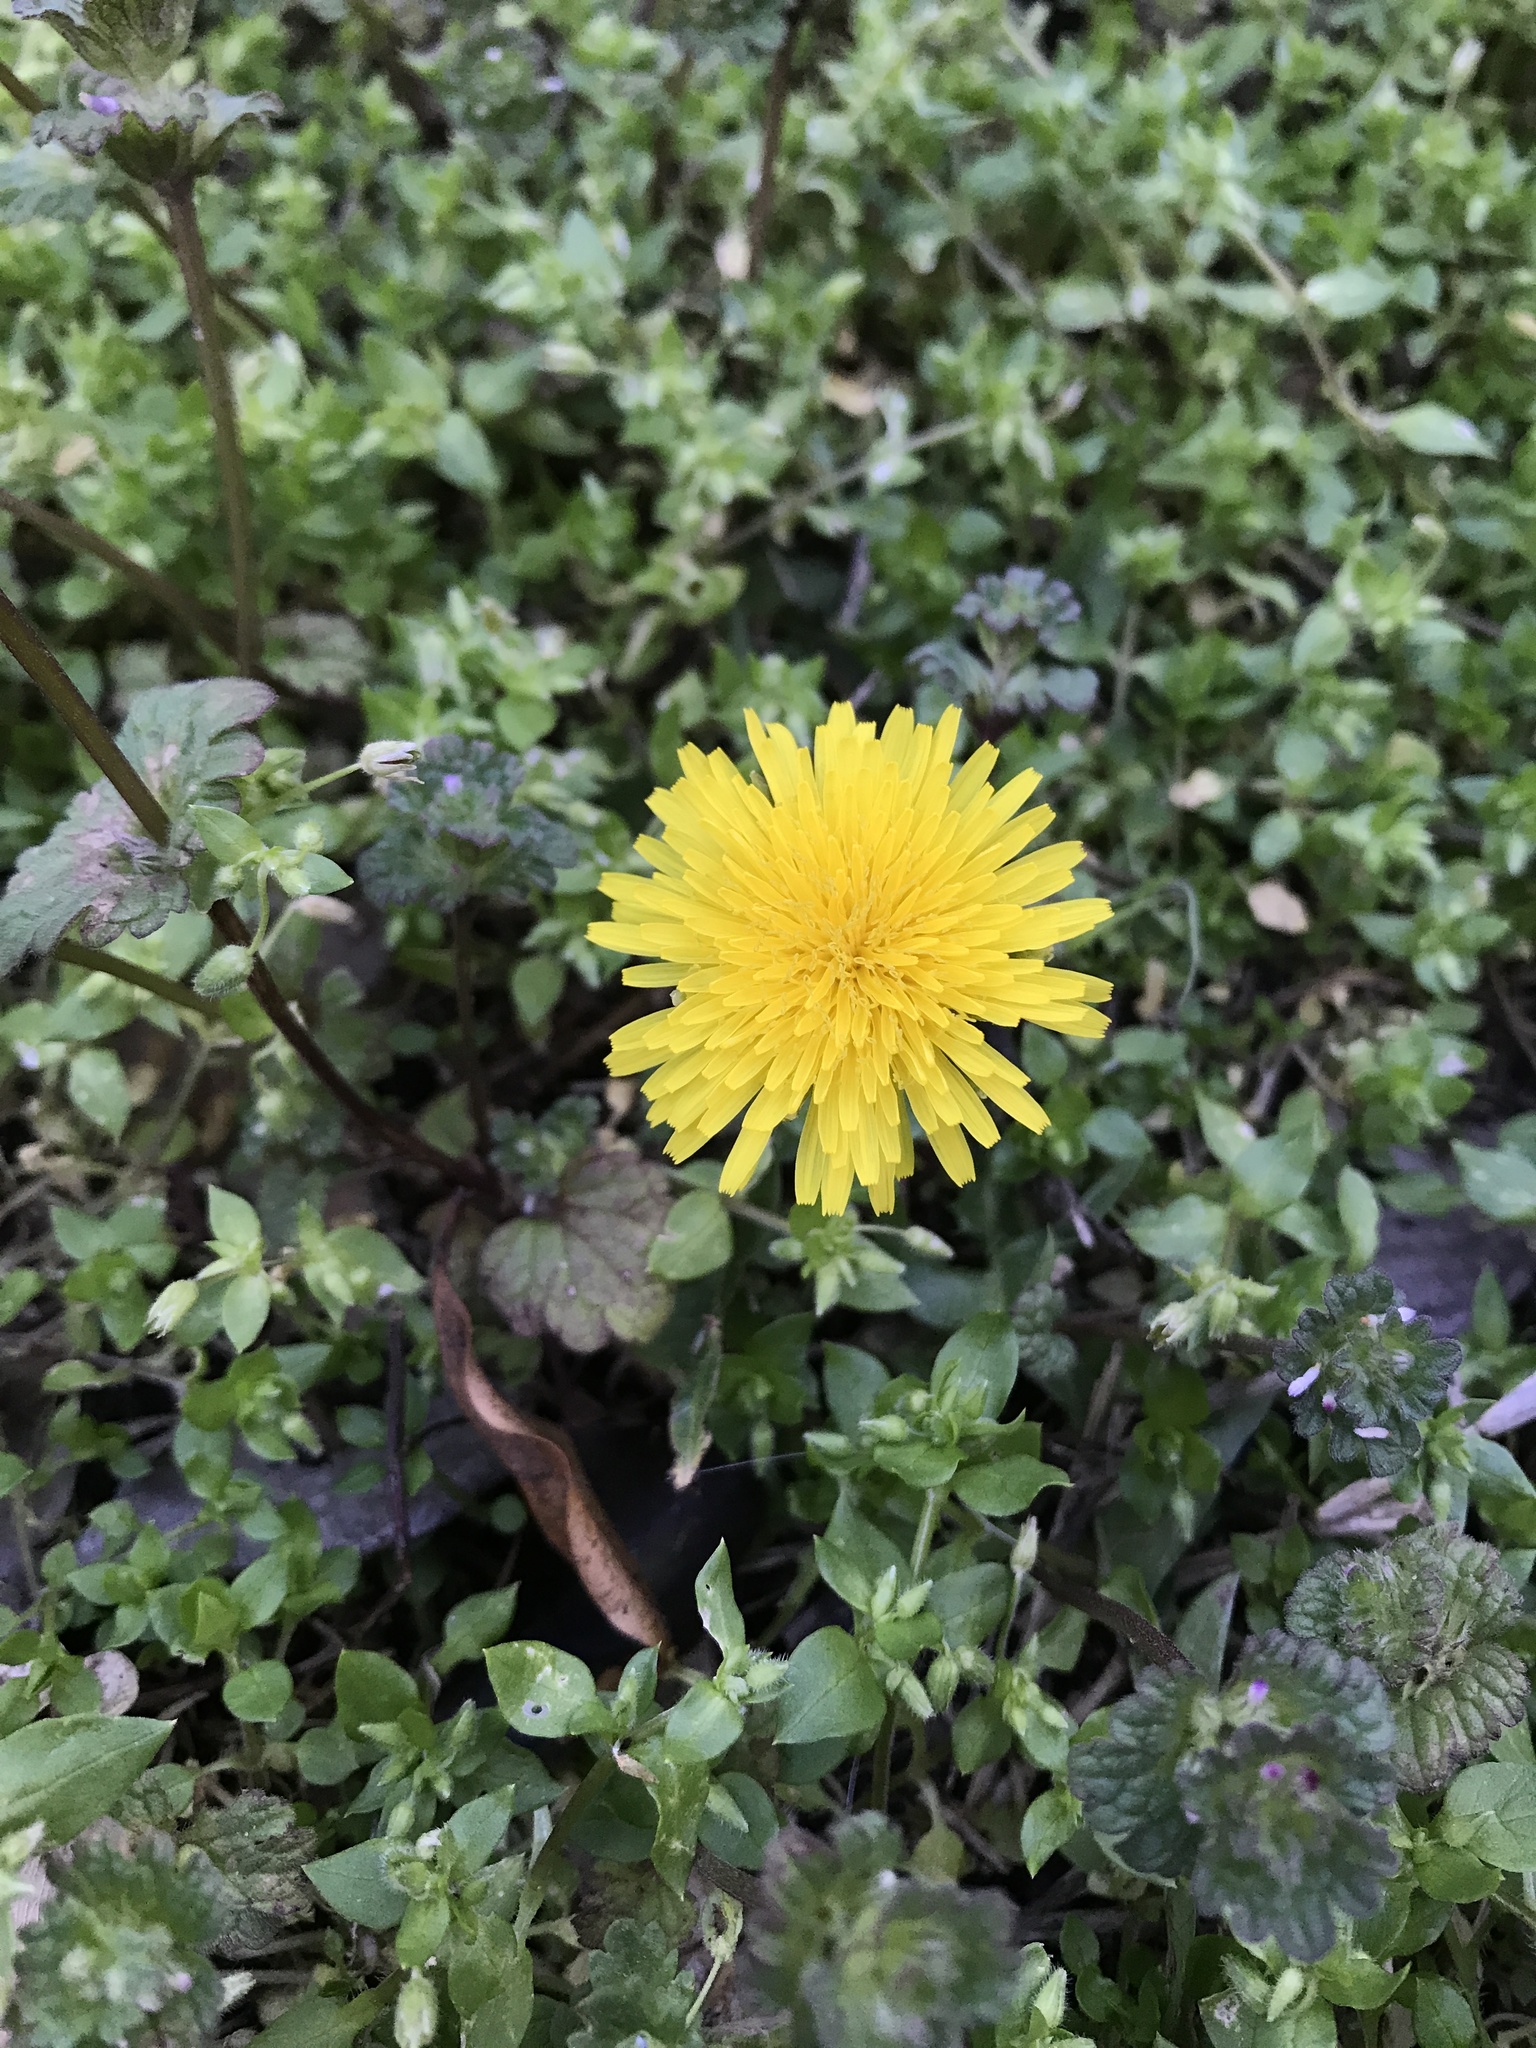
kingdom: Plantae
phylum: Tracheophyta
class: Magnoliopsida
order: Asterales
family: Asteraceae
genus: Taraxacum
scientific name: Taraxacum officinale
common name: Common dandelion
